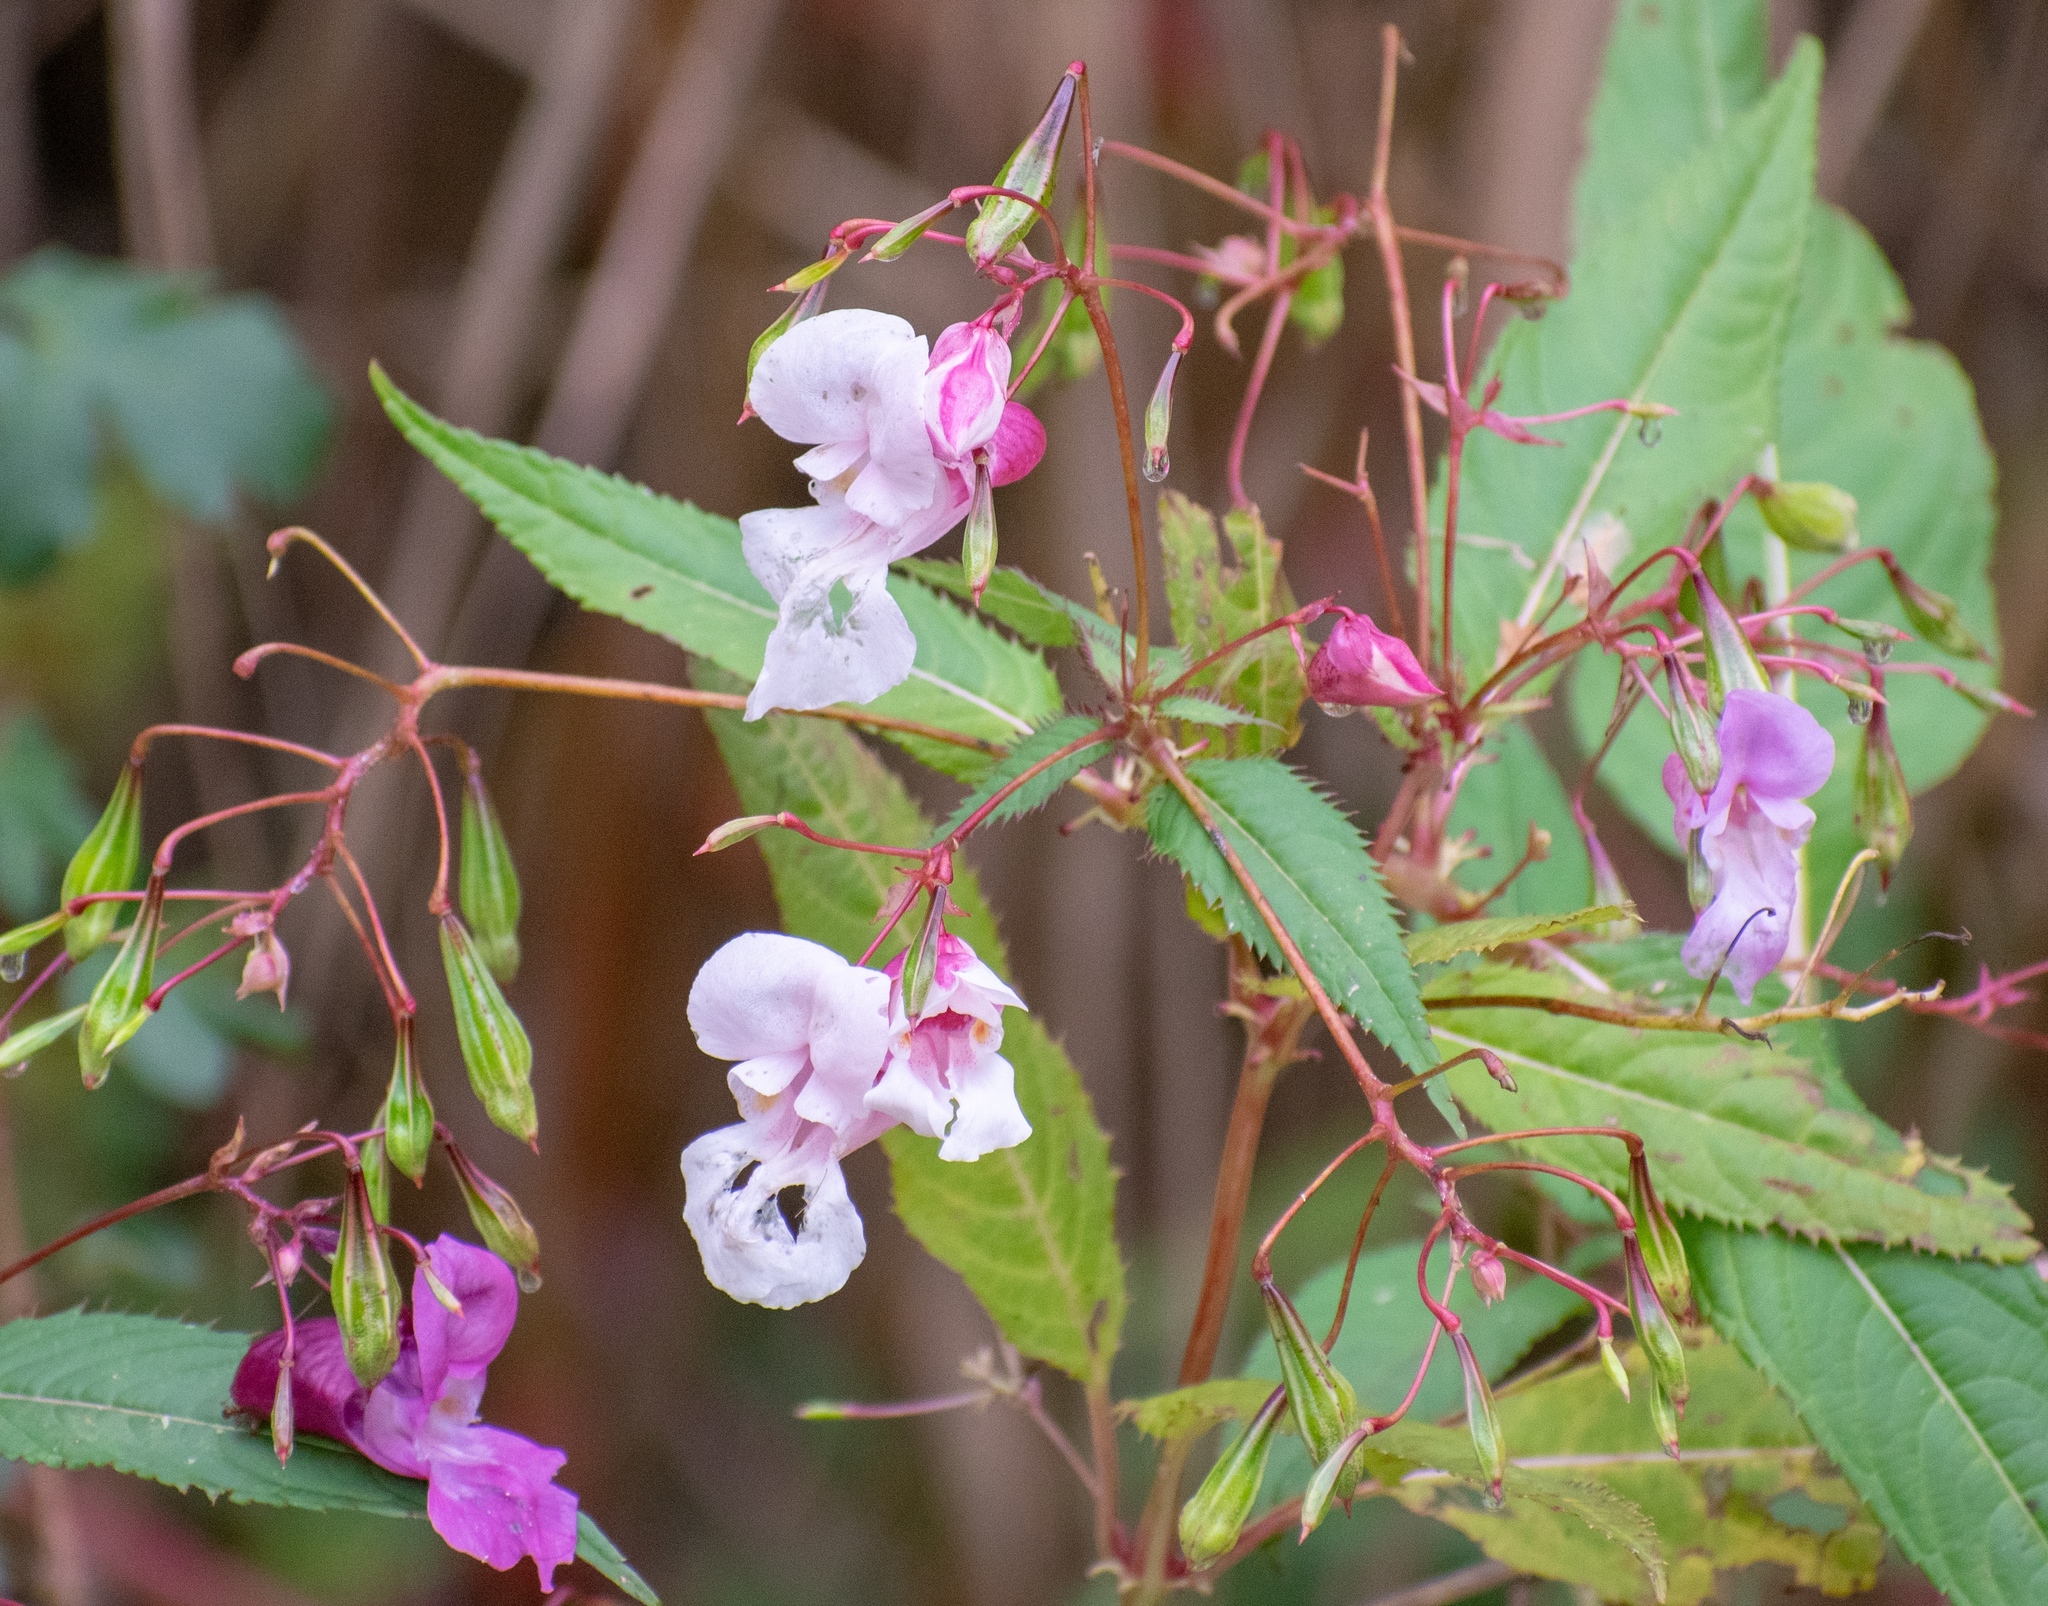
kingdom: Plantae
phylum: Tracheophyta
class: Magnoliopsida
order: Ericales
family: Balsaminaceae
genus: Impatiens
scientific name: Impatiens glandulifera
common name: Himalayan balsam
